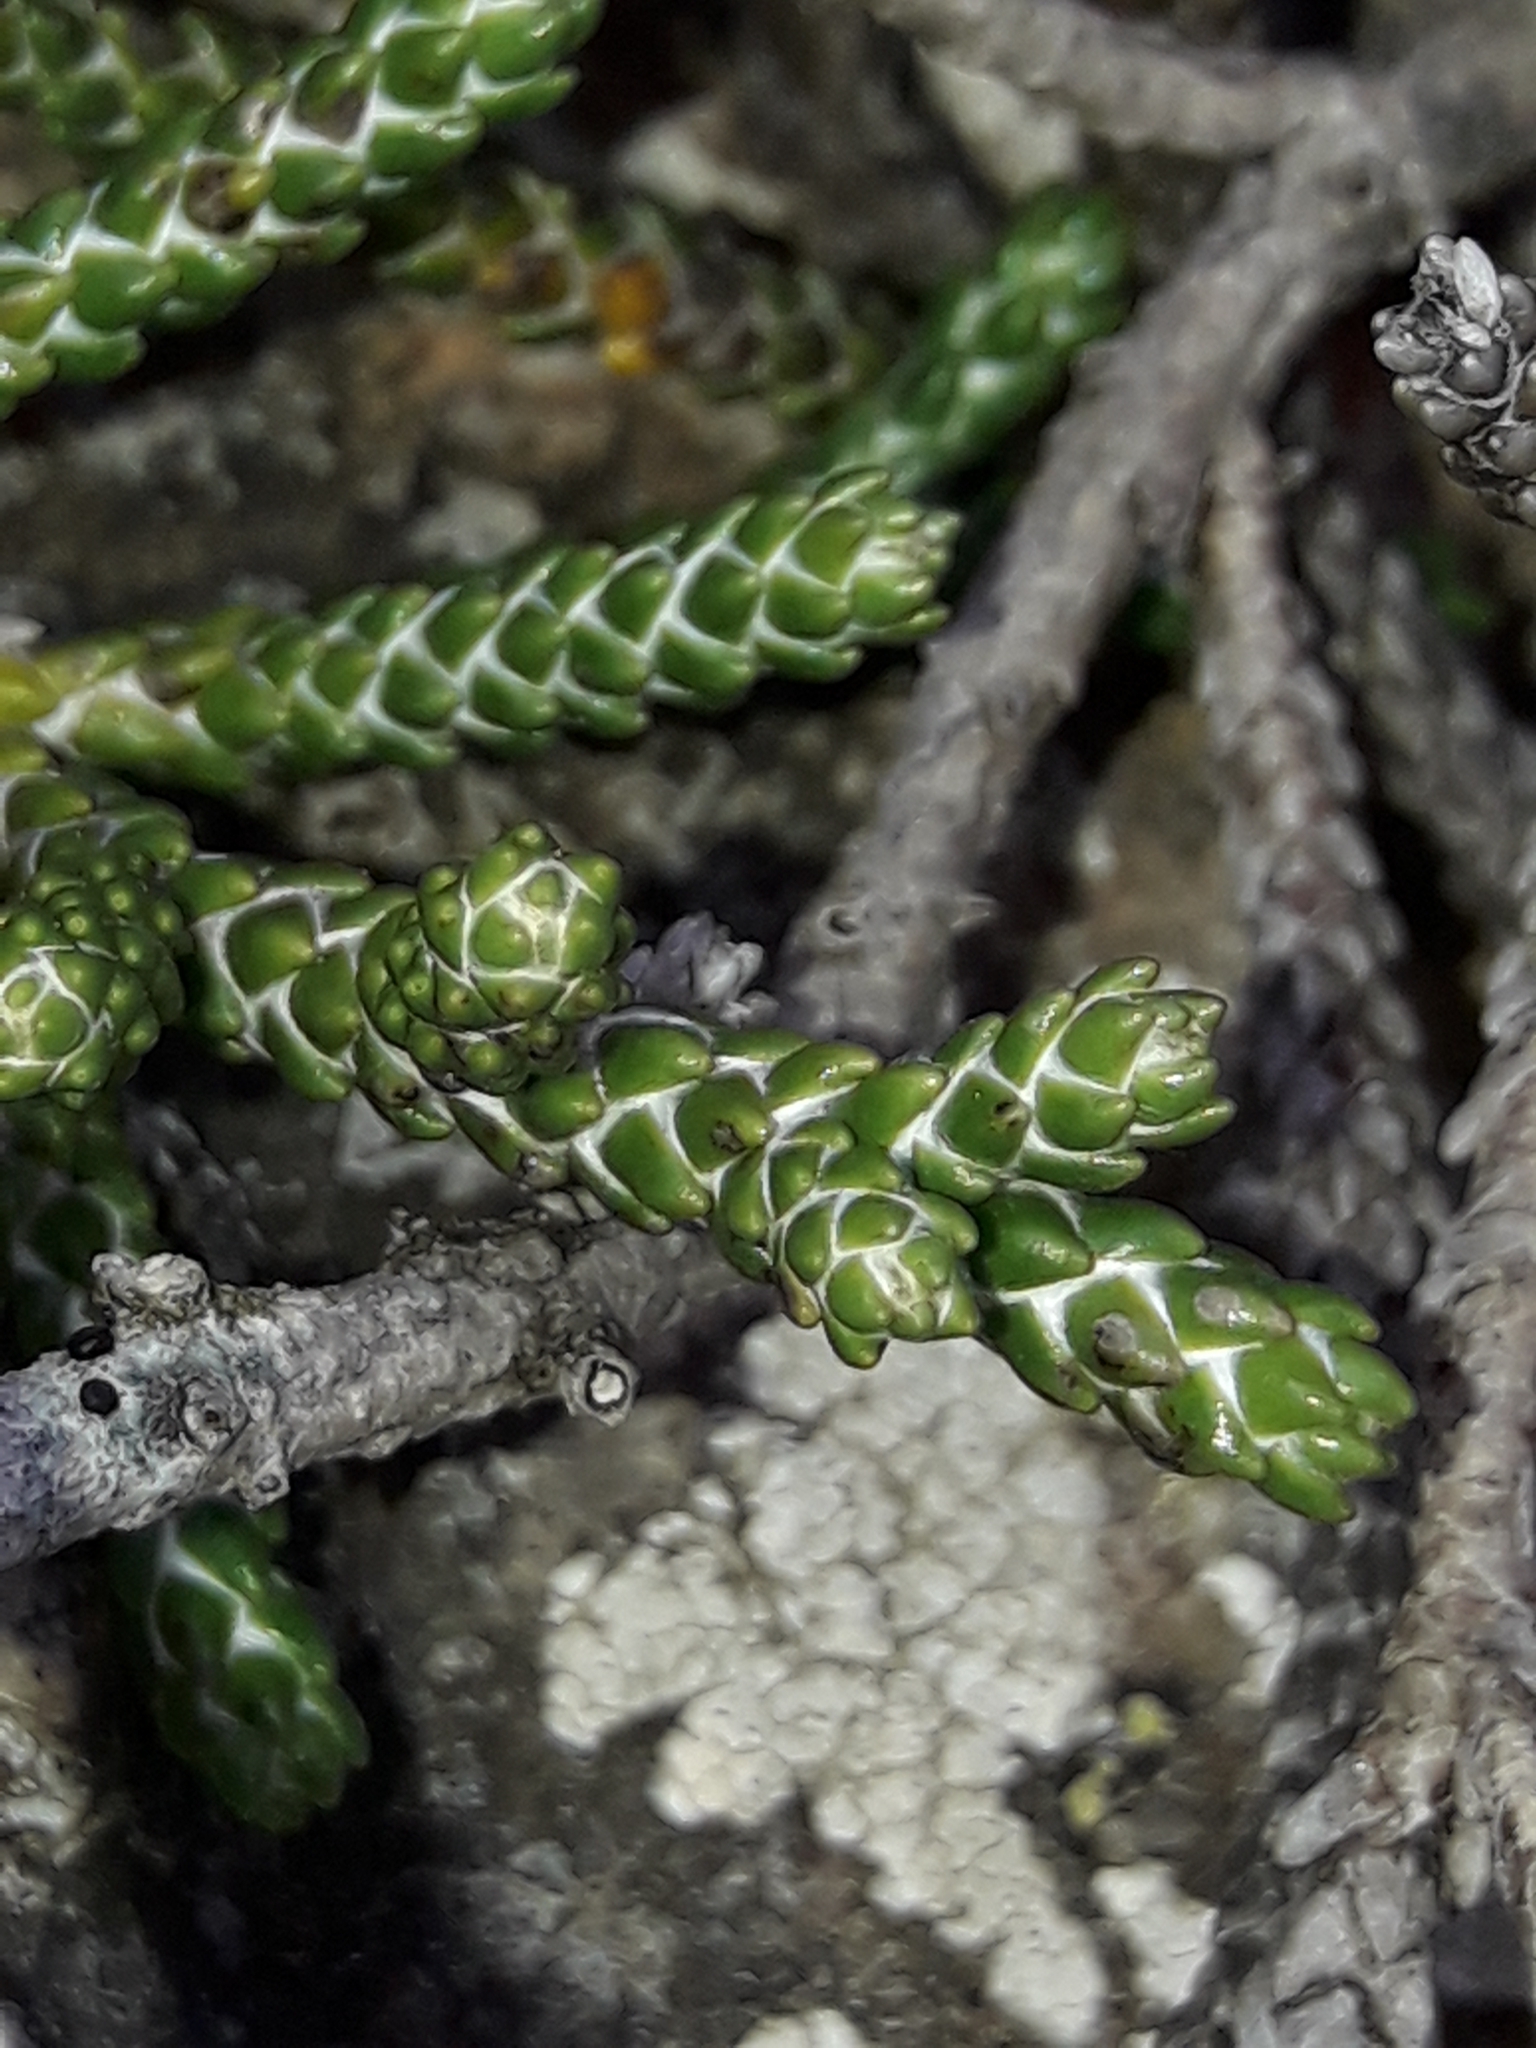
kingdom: Plantae
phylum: Tracheophyta
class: Magnoliopsida
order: Asterales
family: Asteraceae
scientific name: Asteraceae
